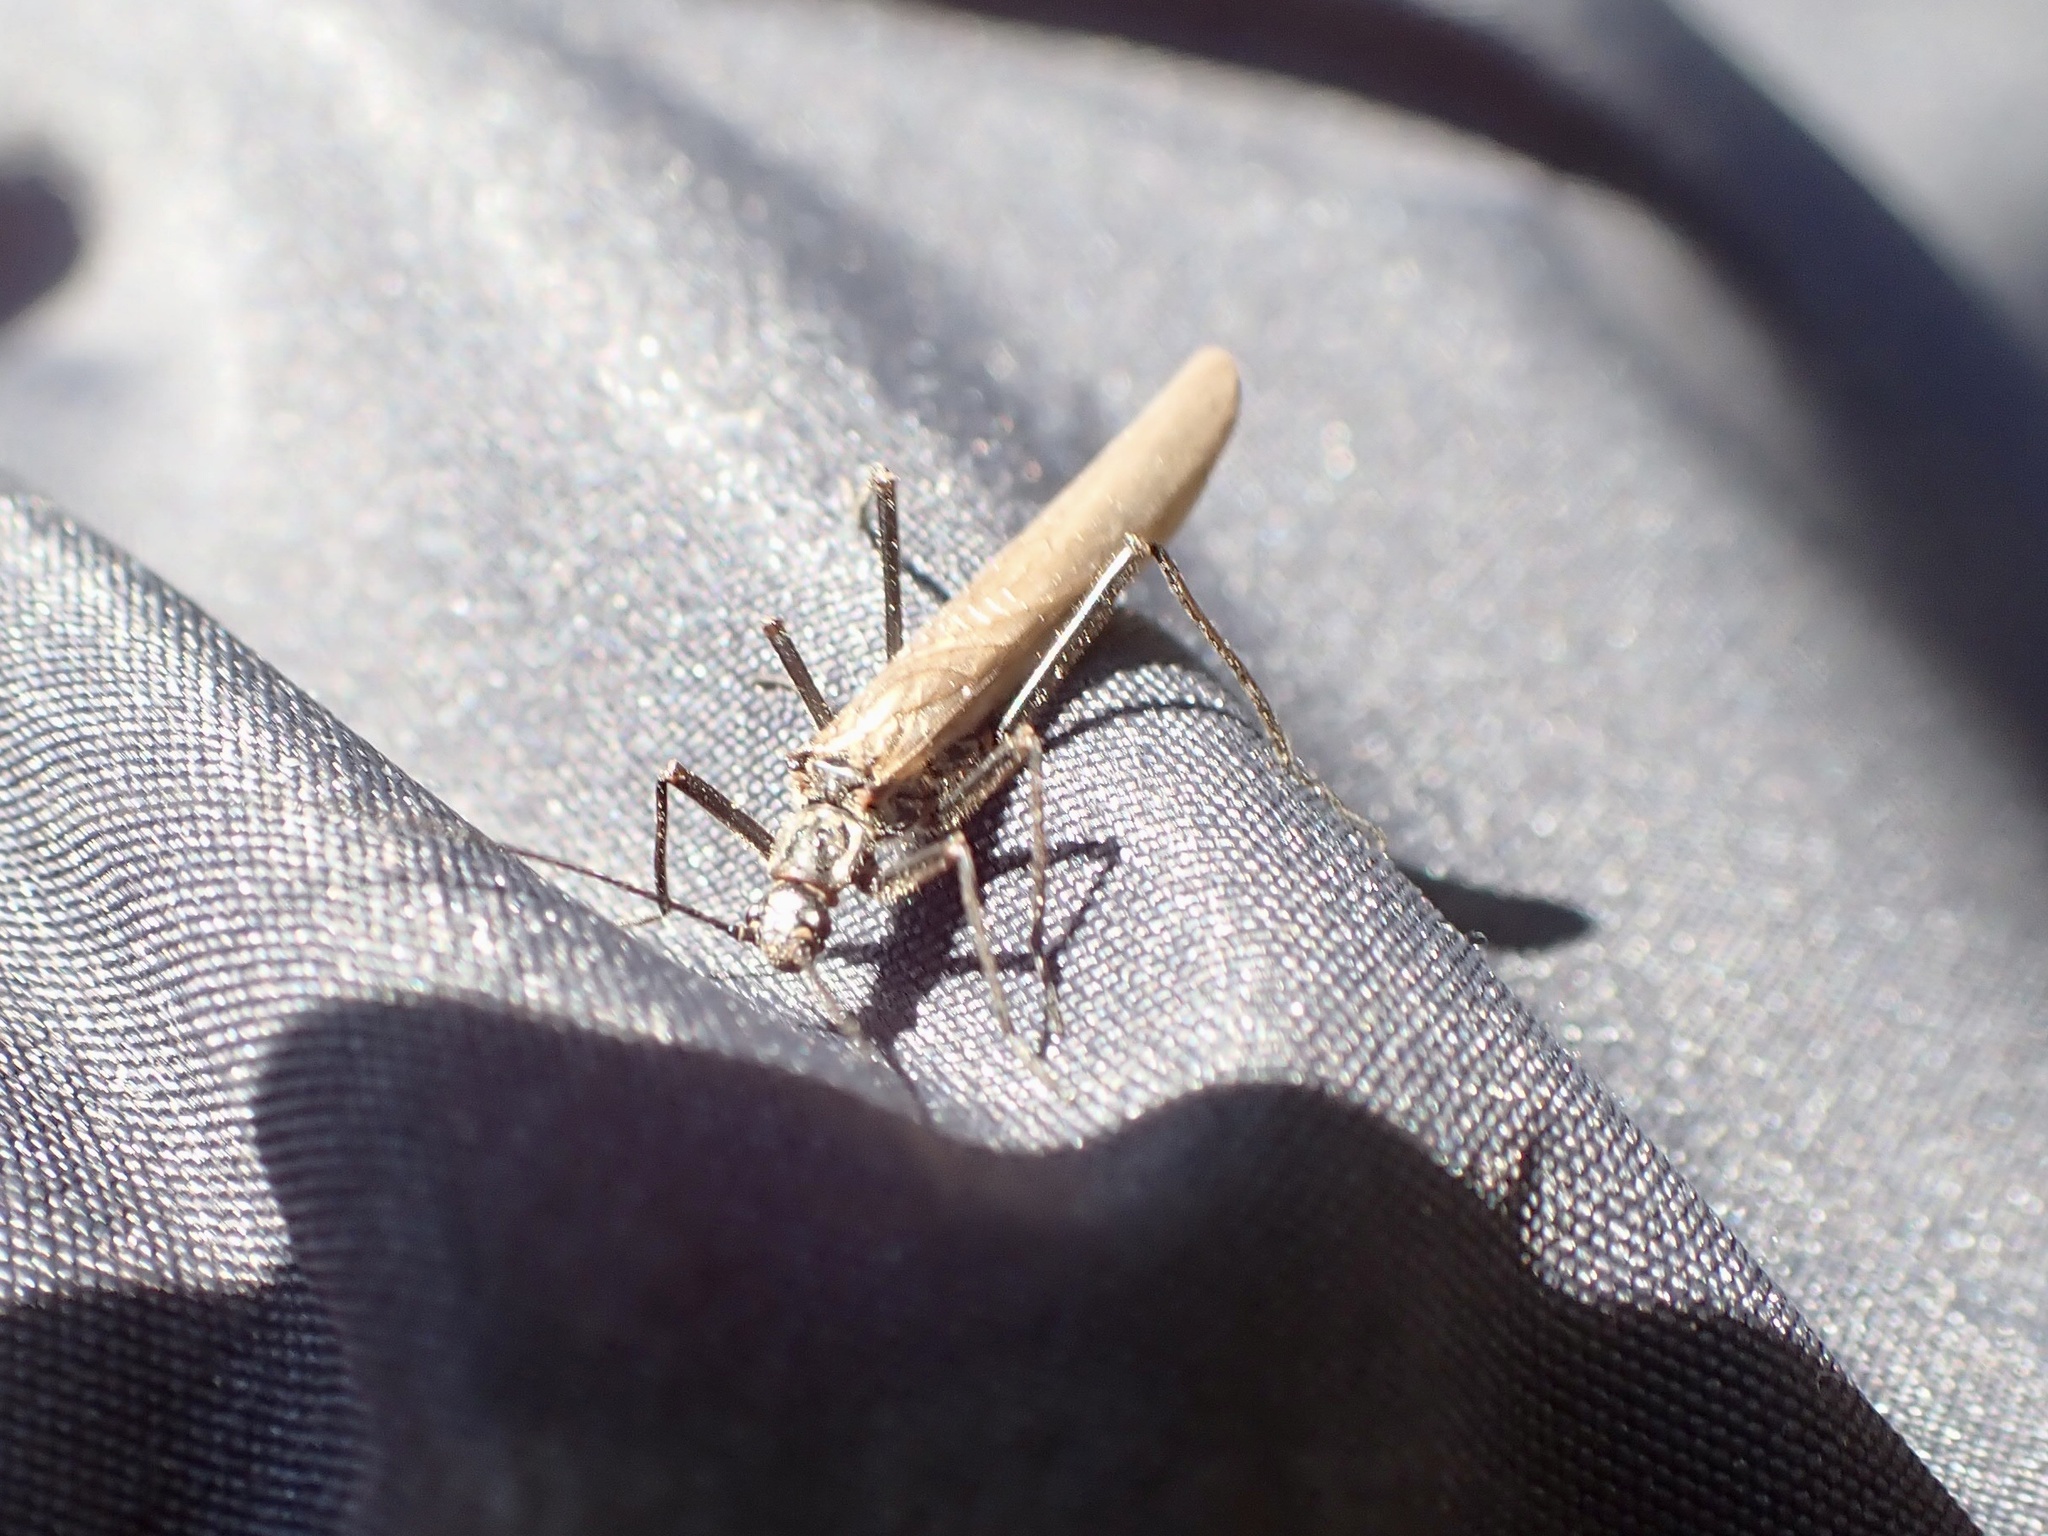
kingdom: Animalia
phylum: Arthropoda
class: Insecta
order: Plecoptera
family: Taeniopterygidae
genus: Taeniopteryx
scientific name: Taeniopteryx nebulosa
